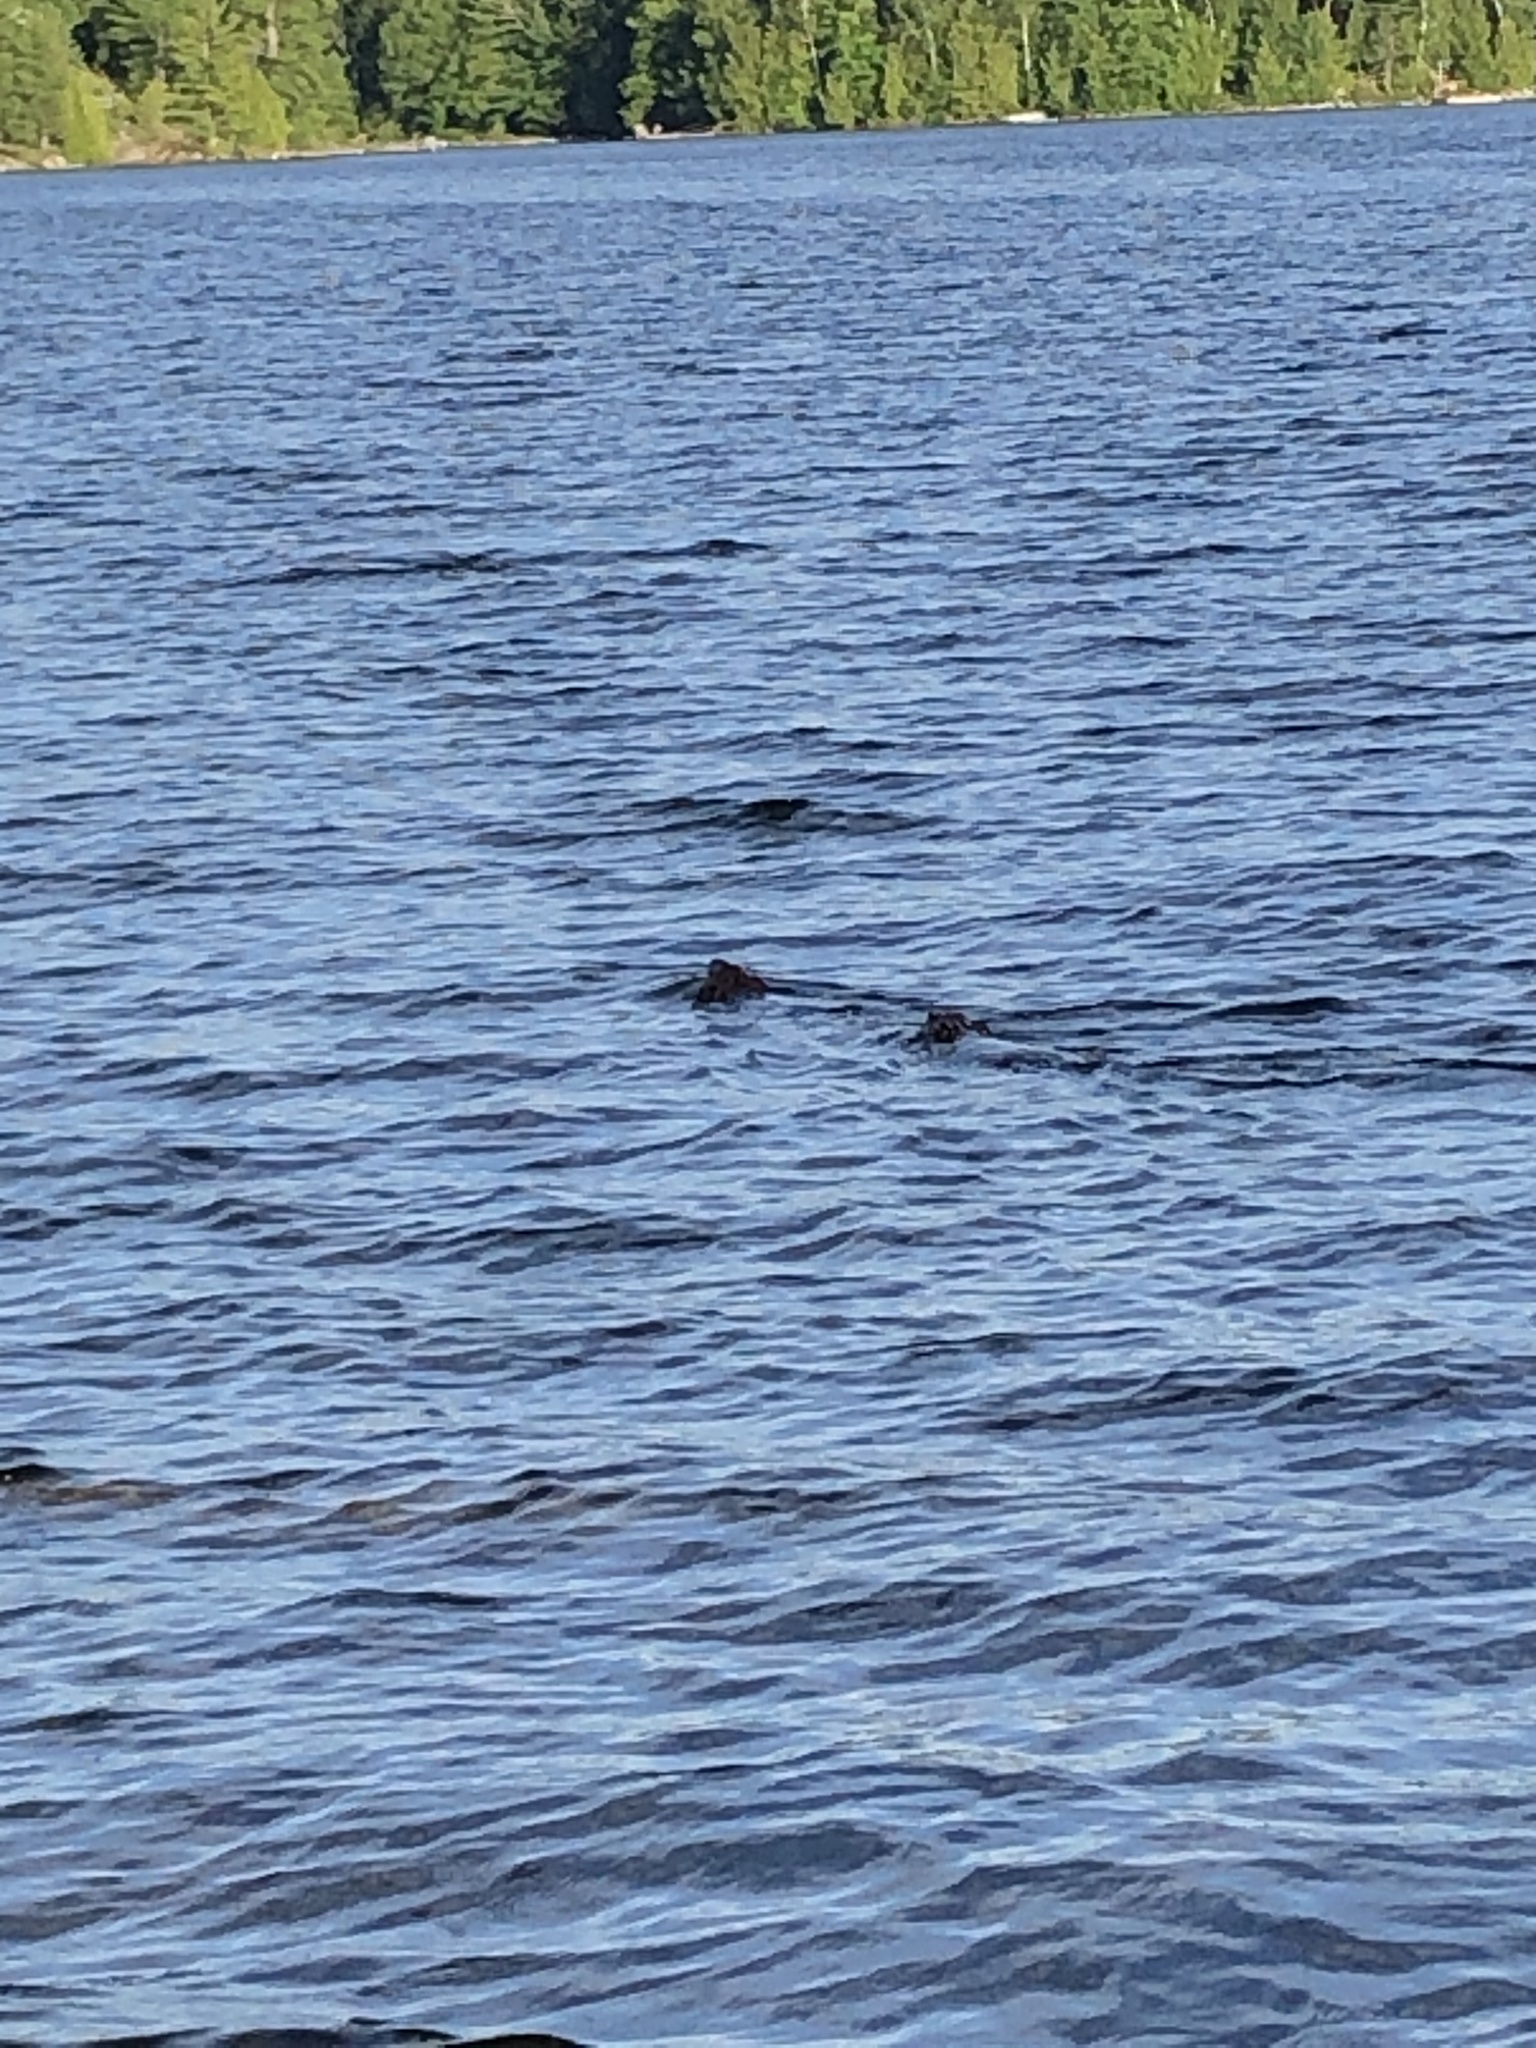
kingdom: Animalia
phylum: Chordata
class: Mammalia
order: Rodentia
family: Castoridae
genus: Castor
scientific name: Castor canadensis
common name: American beaver
